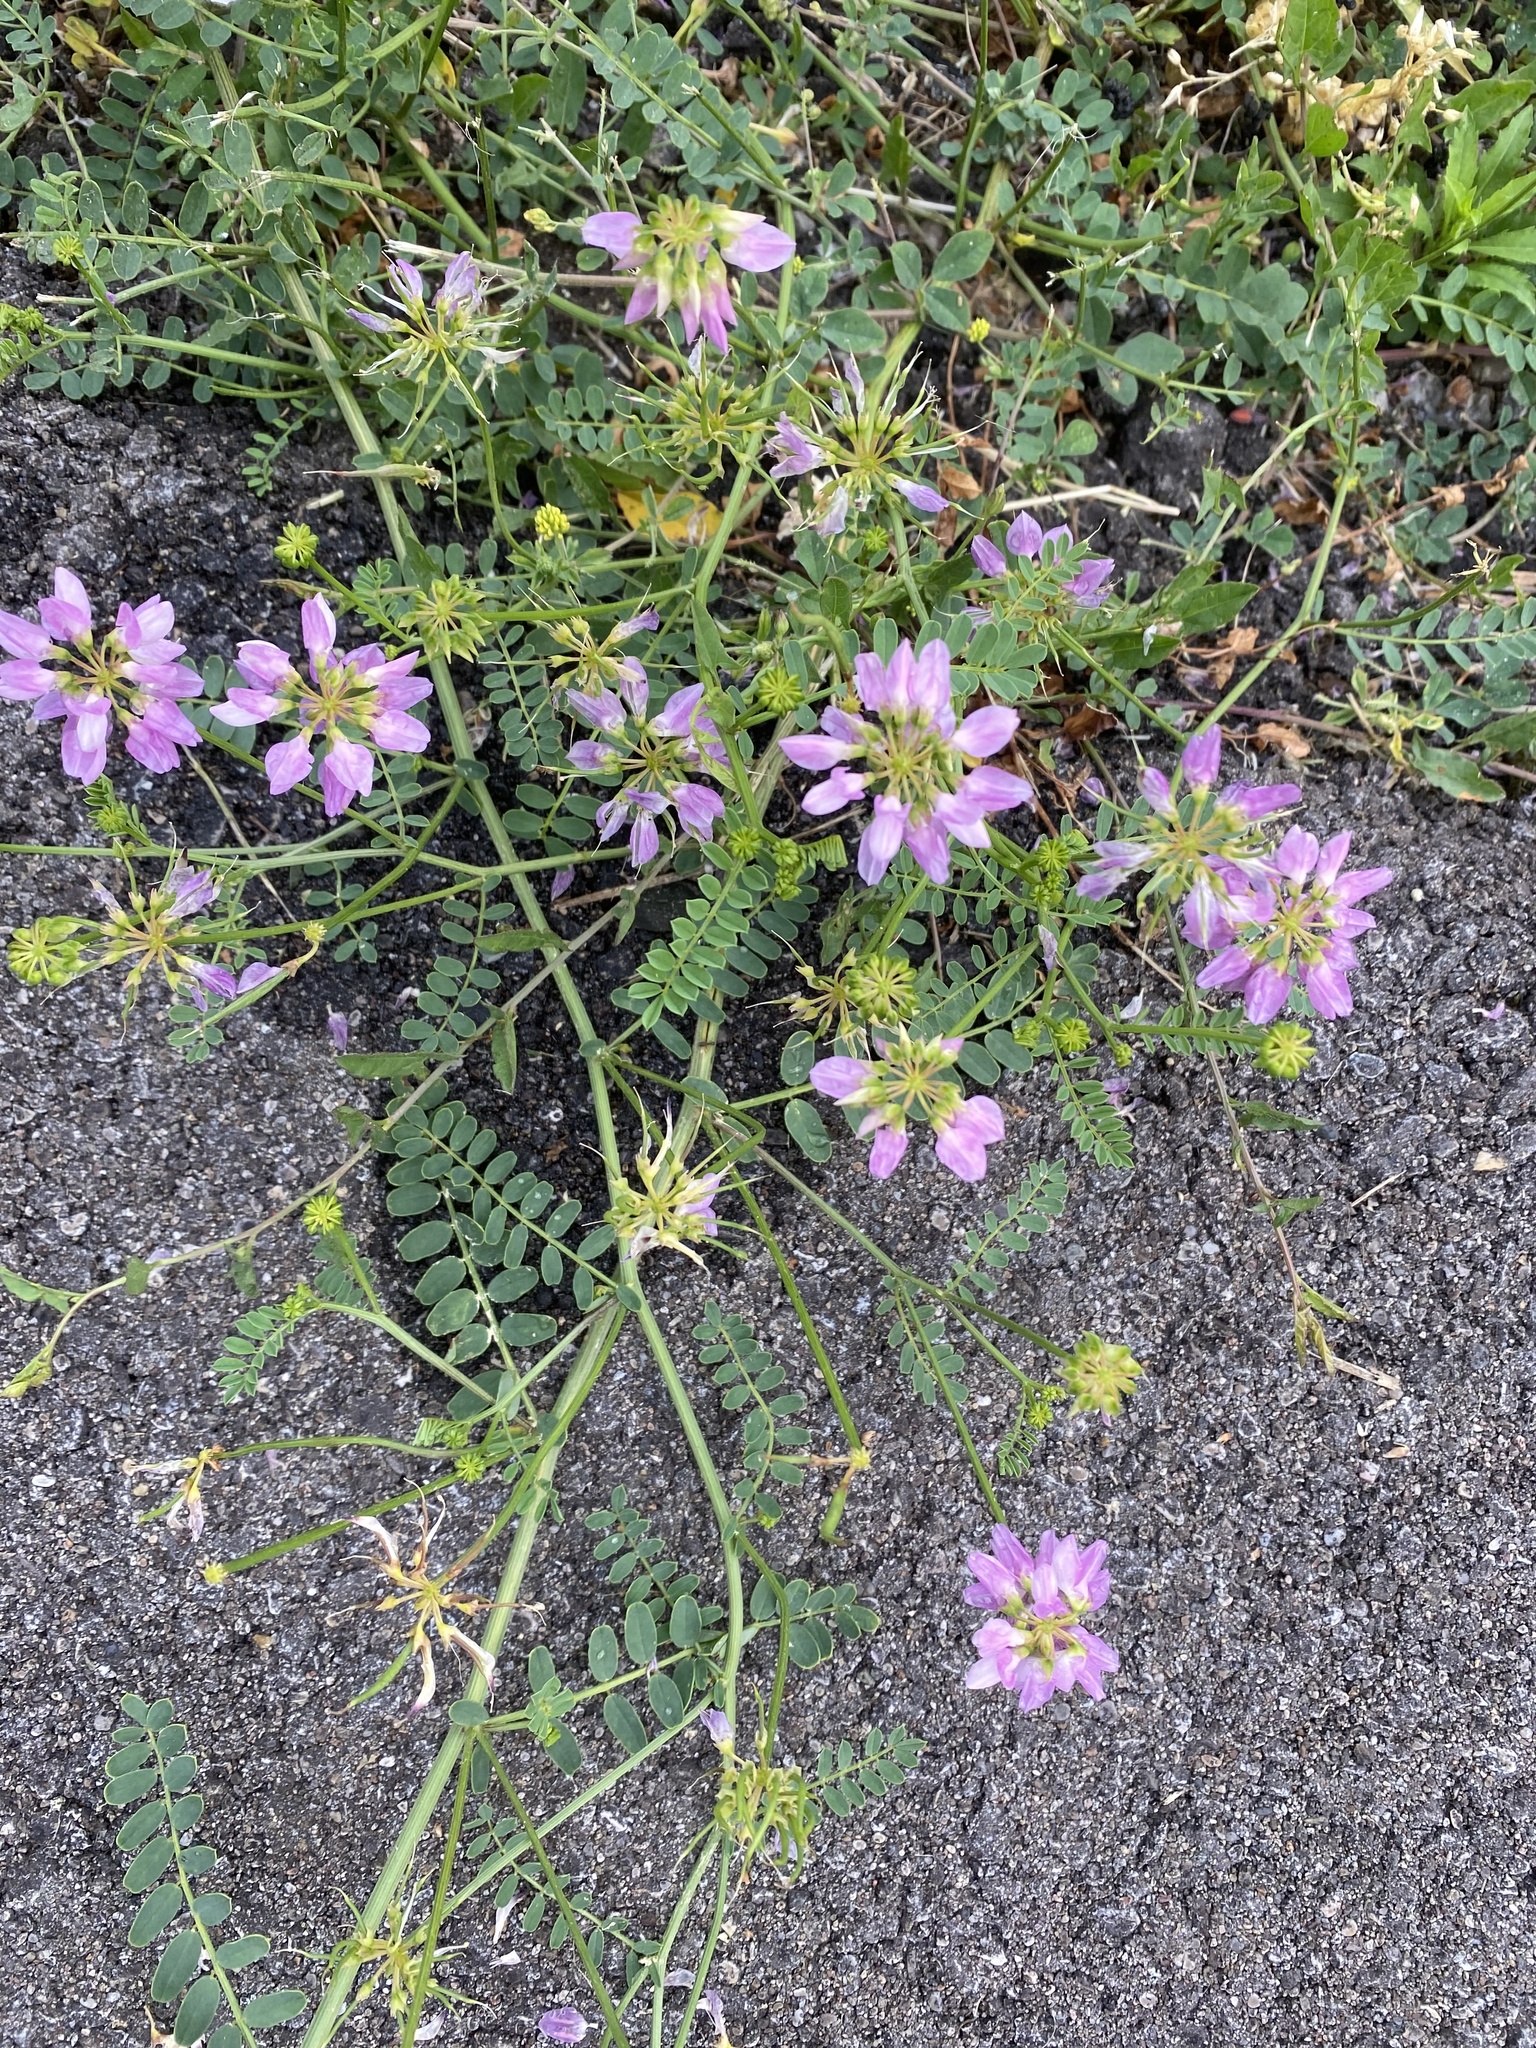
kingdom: Plantae
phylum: Tracheophyta
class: Magnoliopsida
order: Fabales
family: Fabaceae
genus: Coronilla
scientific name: Coronilla varia
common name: Crownvetch
